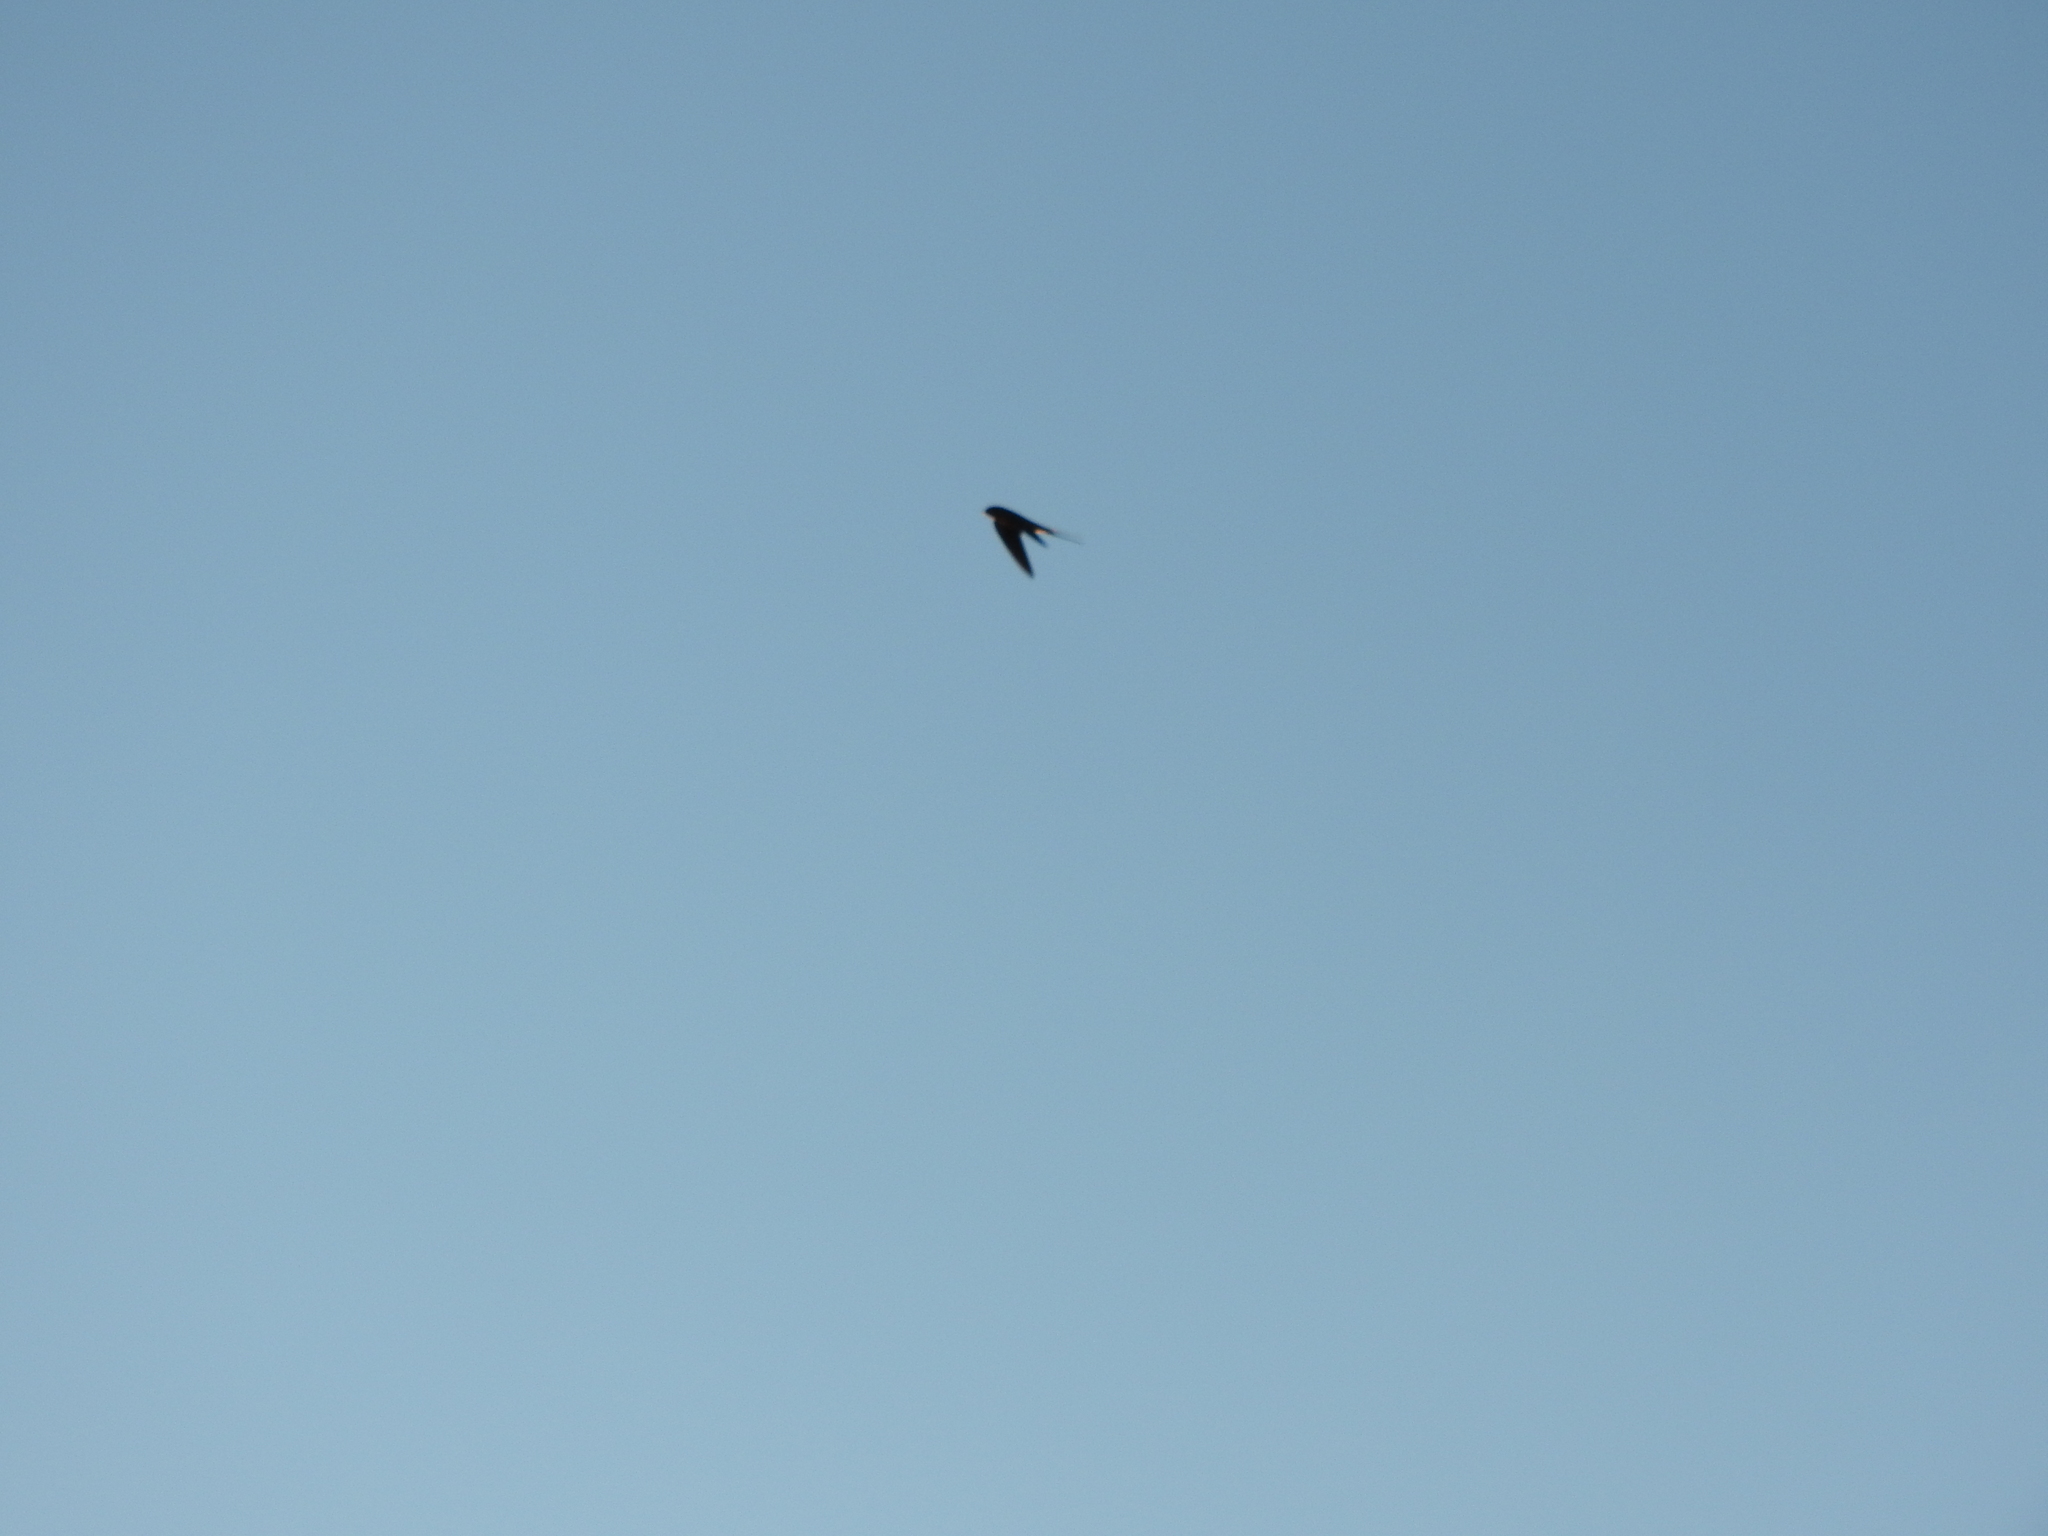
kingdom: Animalia
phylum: Chordata
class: Aves
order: Passeriformes
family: Hirundinidae
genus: Hirundo
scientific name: Hirundo rustica
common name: Barn swallow
